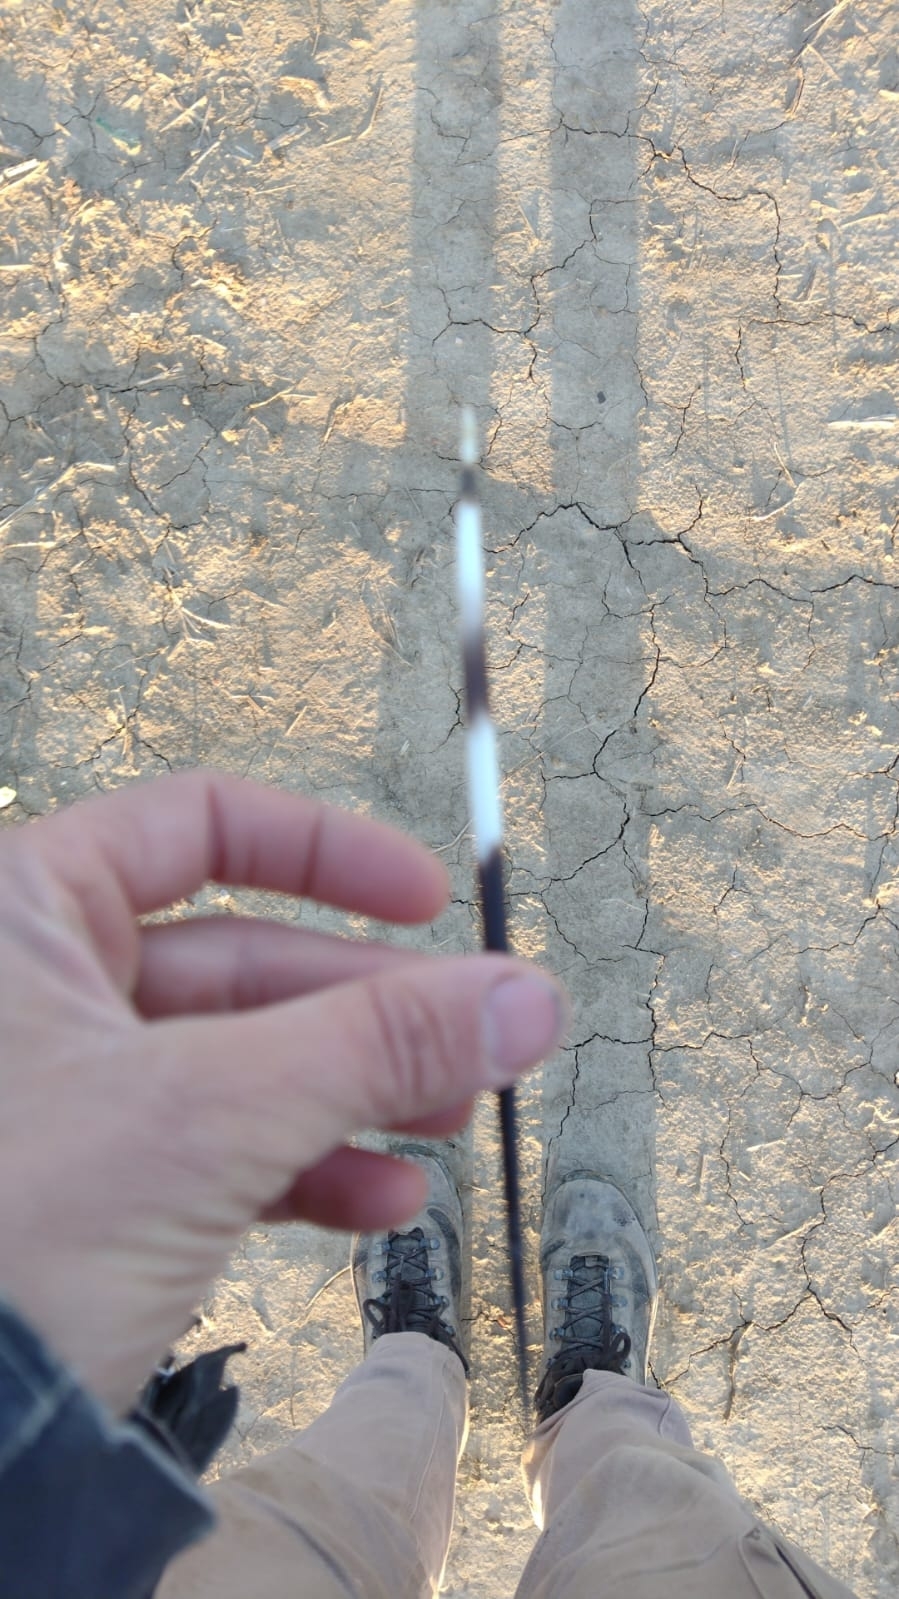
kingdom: Animalia
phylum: Chordata
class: Mammalia
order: Rodentia
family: Hystricidae
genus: Hystrix
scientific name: Hystrix cristata
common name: Crested porcupine
